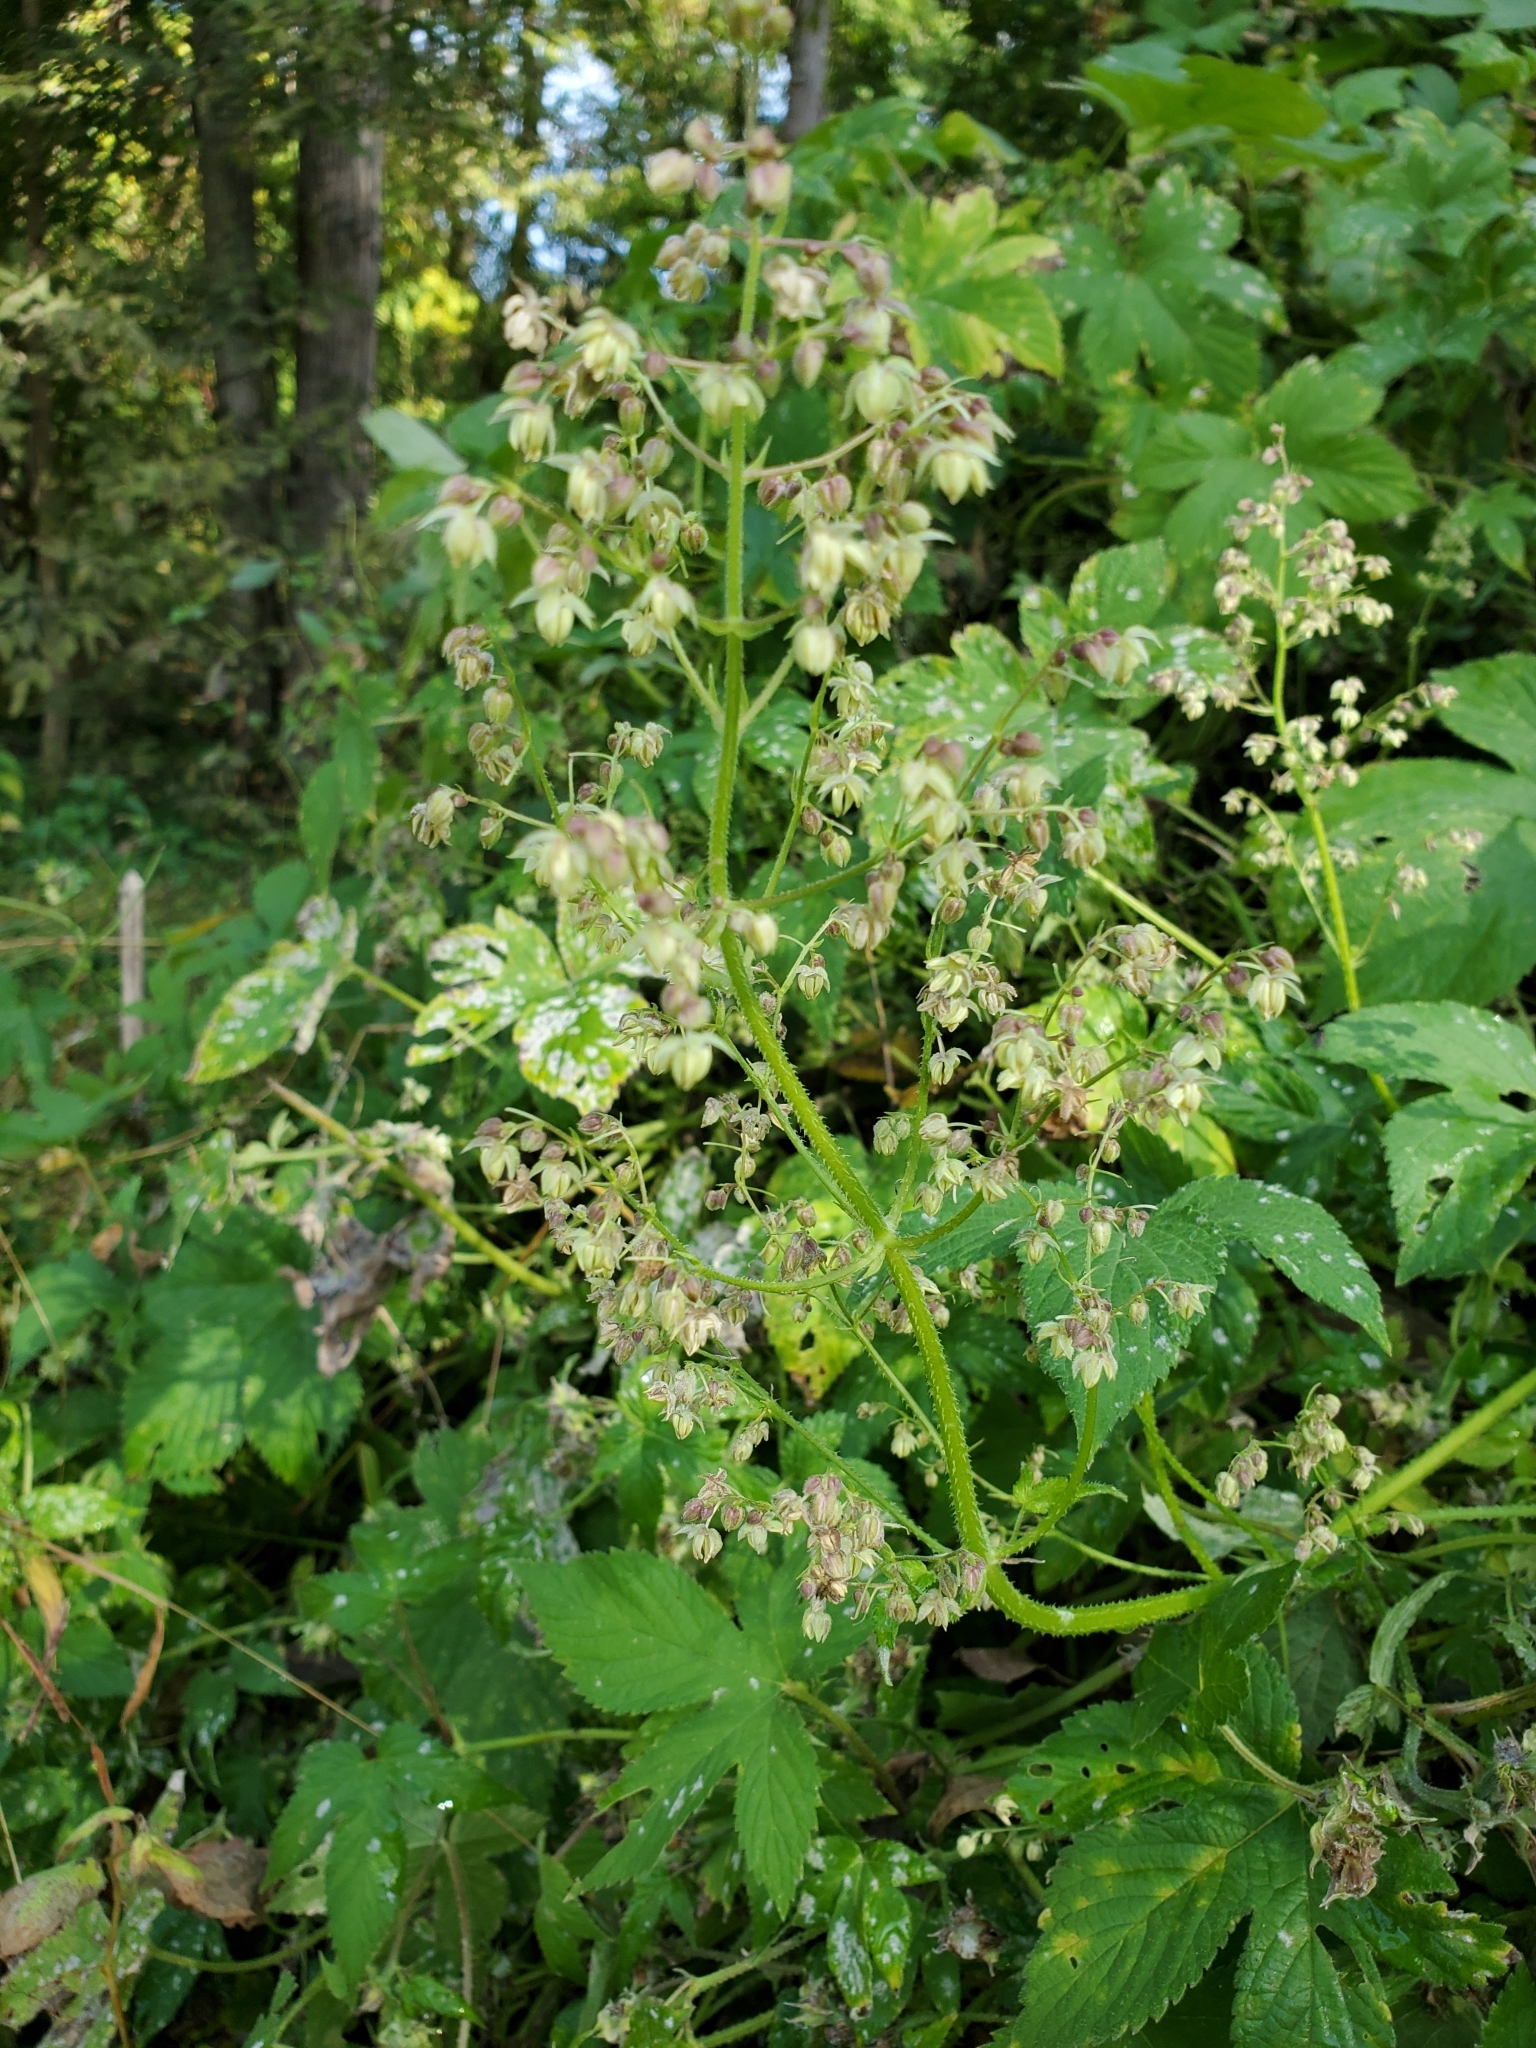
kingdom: Plantae
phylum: Tracheophyta
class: Magnoliopsida
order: Rosales
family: Cannabaceae
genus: Humulus
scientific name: Humulus scandens
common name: Japanese hop
